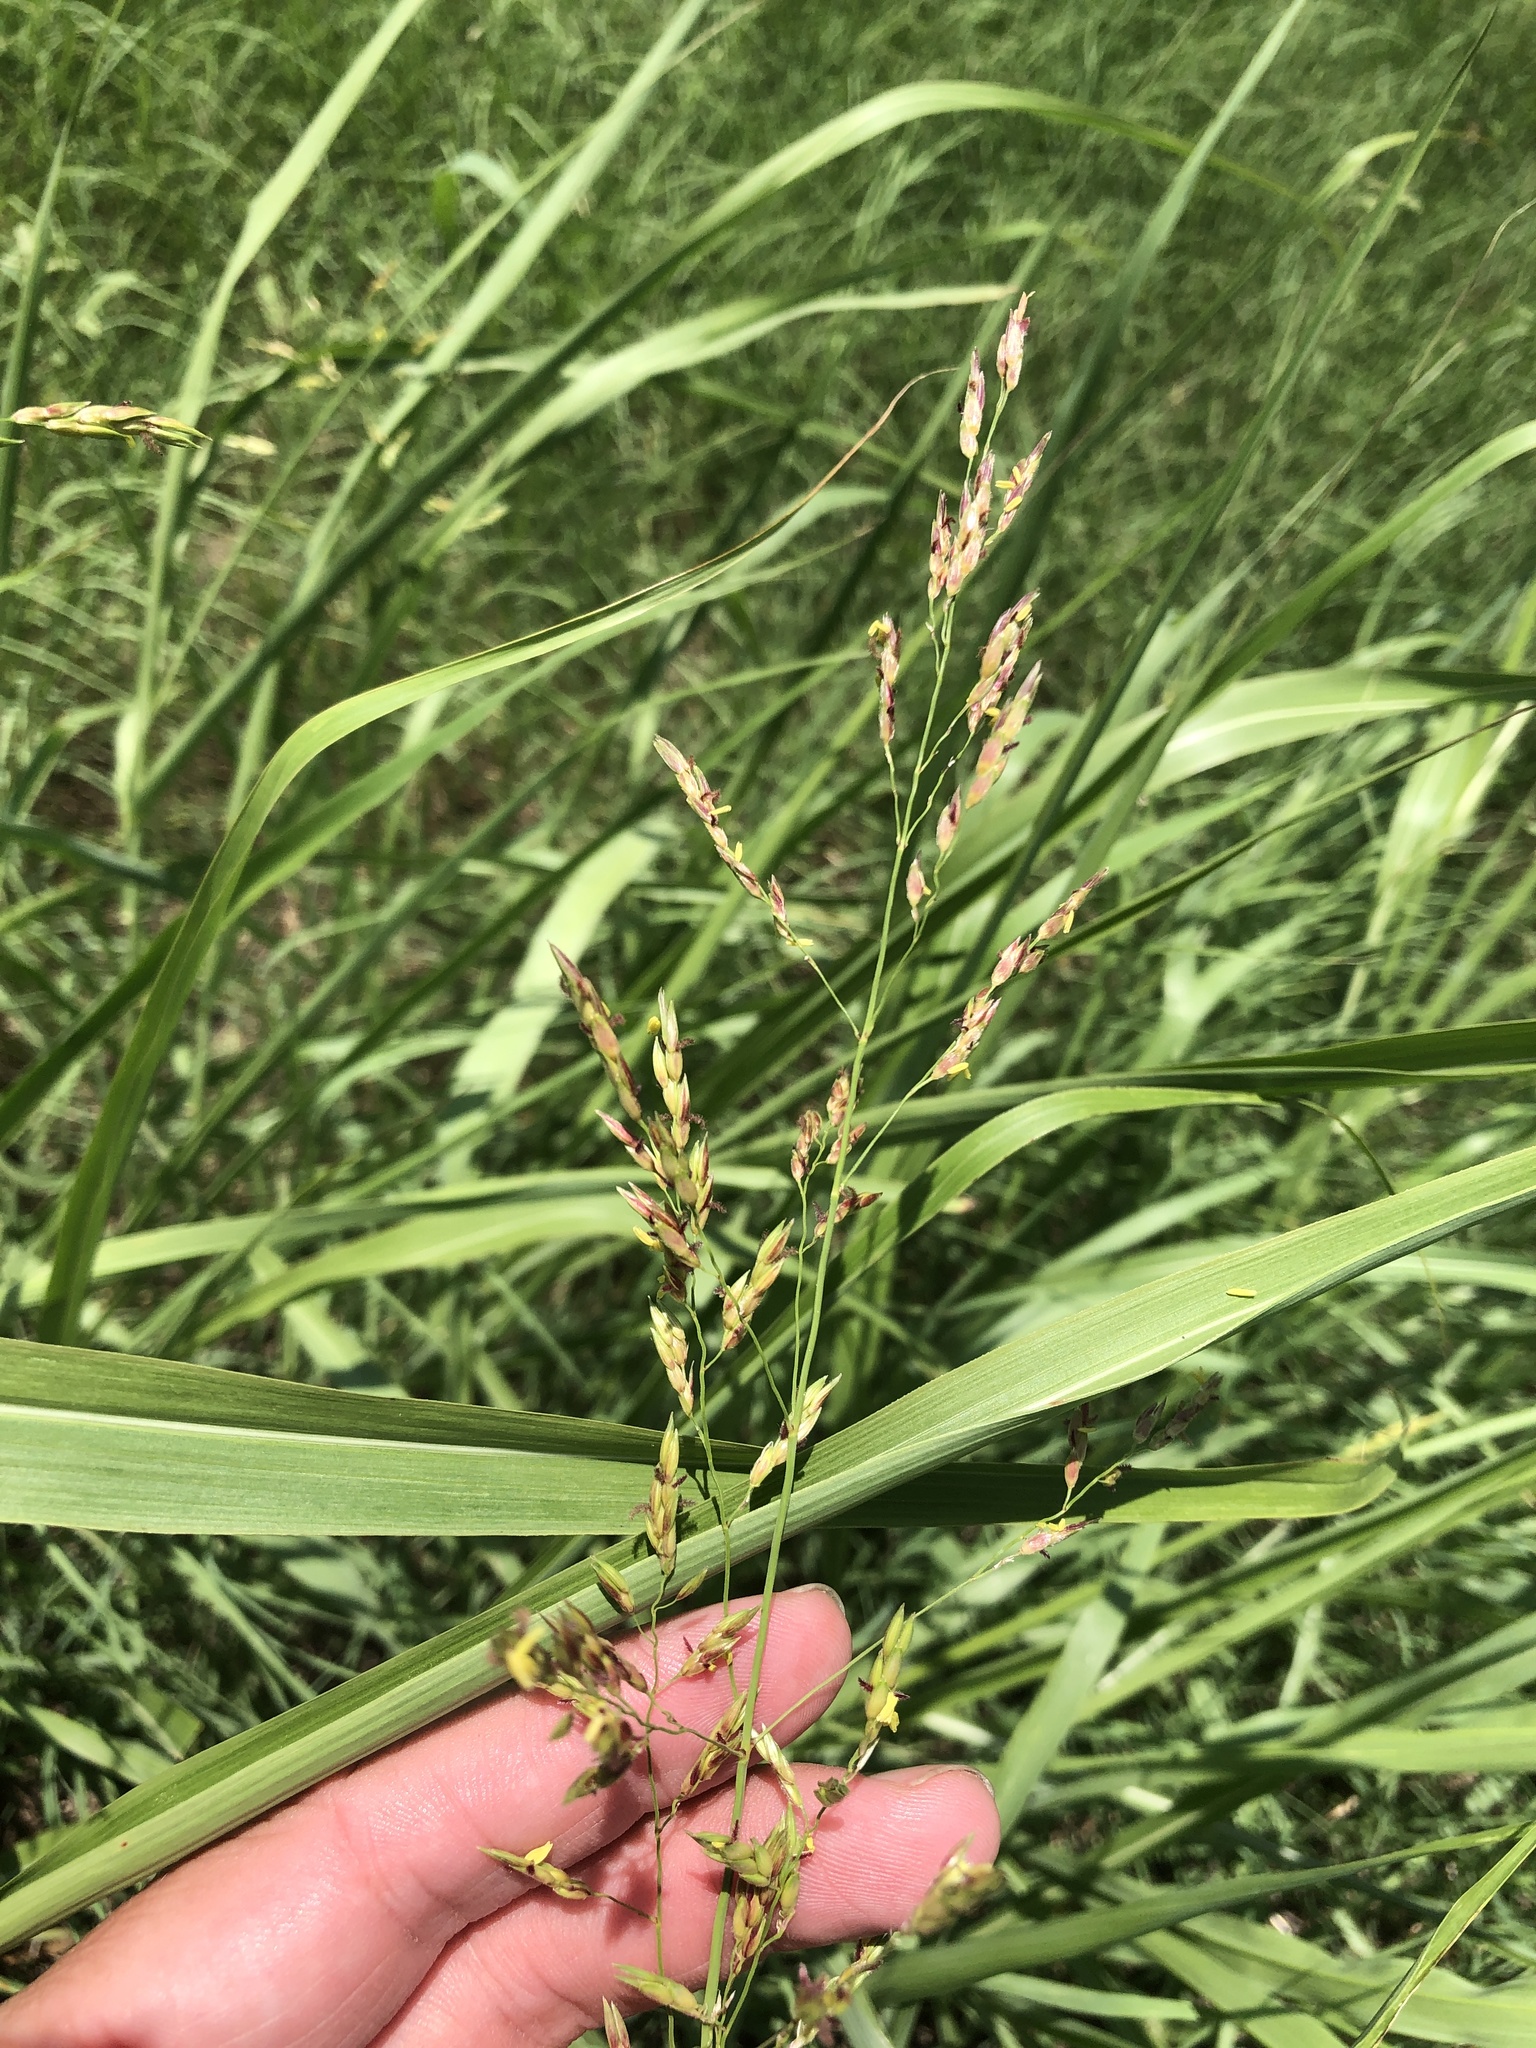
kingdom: Plantae
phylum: Tracheophyta
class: Liliopsida
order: Poales
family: Poaceae
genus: Sorghum
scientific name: Sorghum halepense
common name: Johnson-grass
